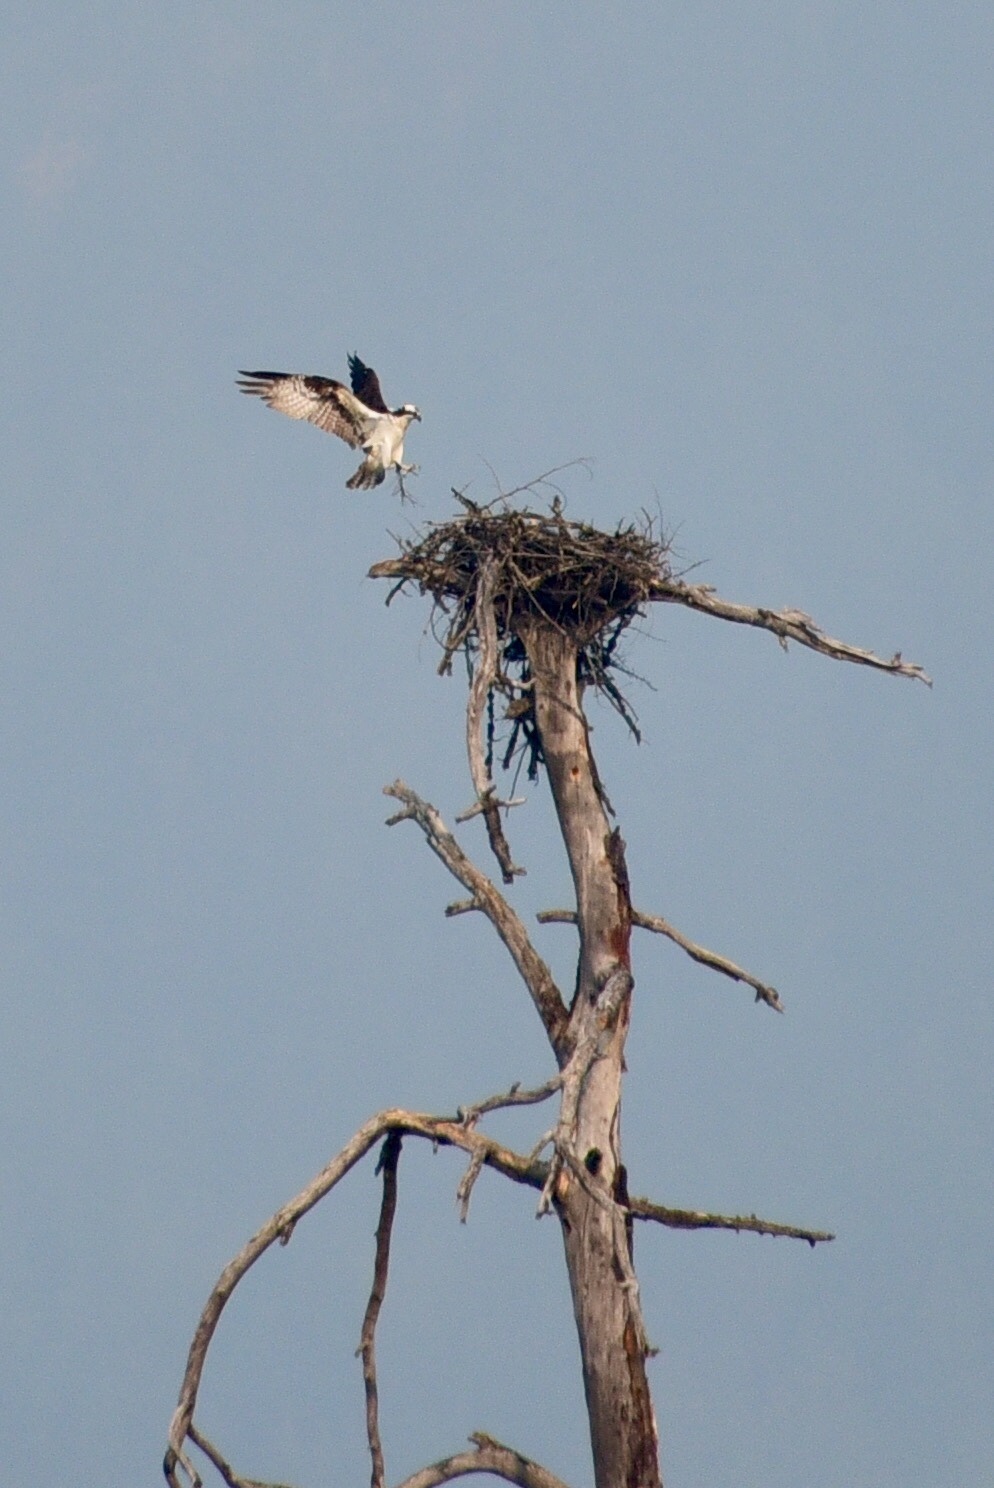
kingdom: Animalia
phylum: Chordata
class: Aves
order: Accipitriformes
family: Pandionidae
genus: Pandion
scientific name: Pandion haliaetus
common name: Osprey
